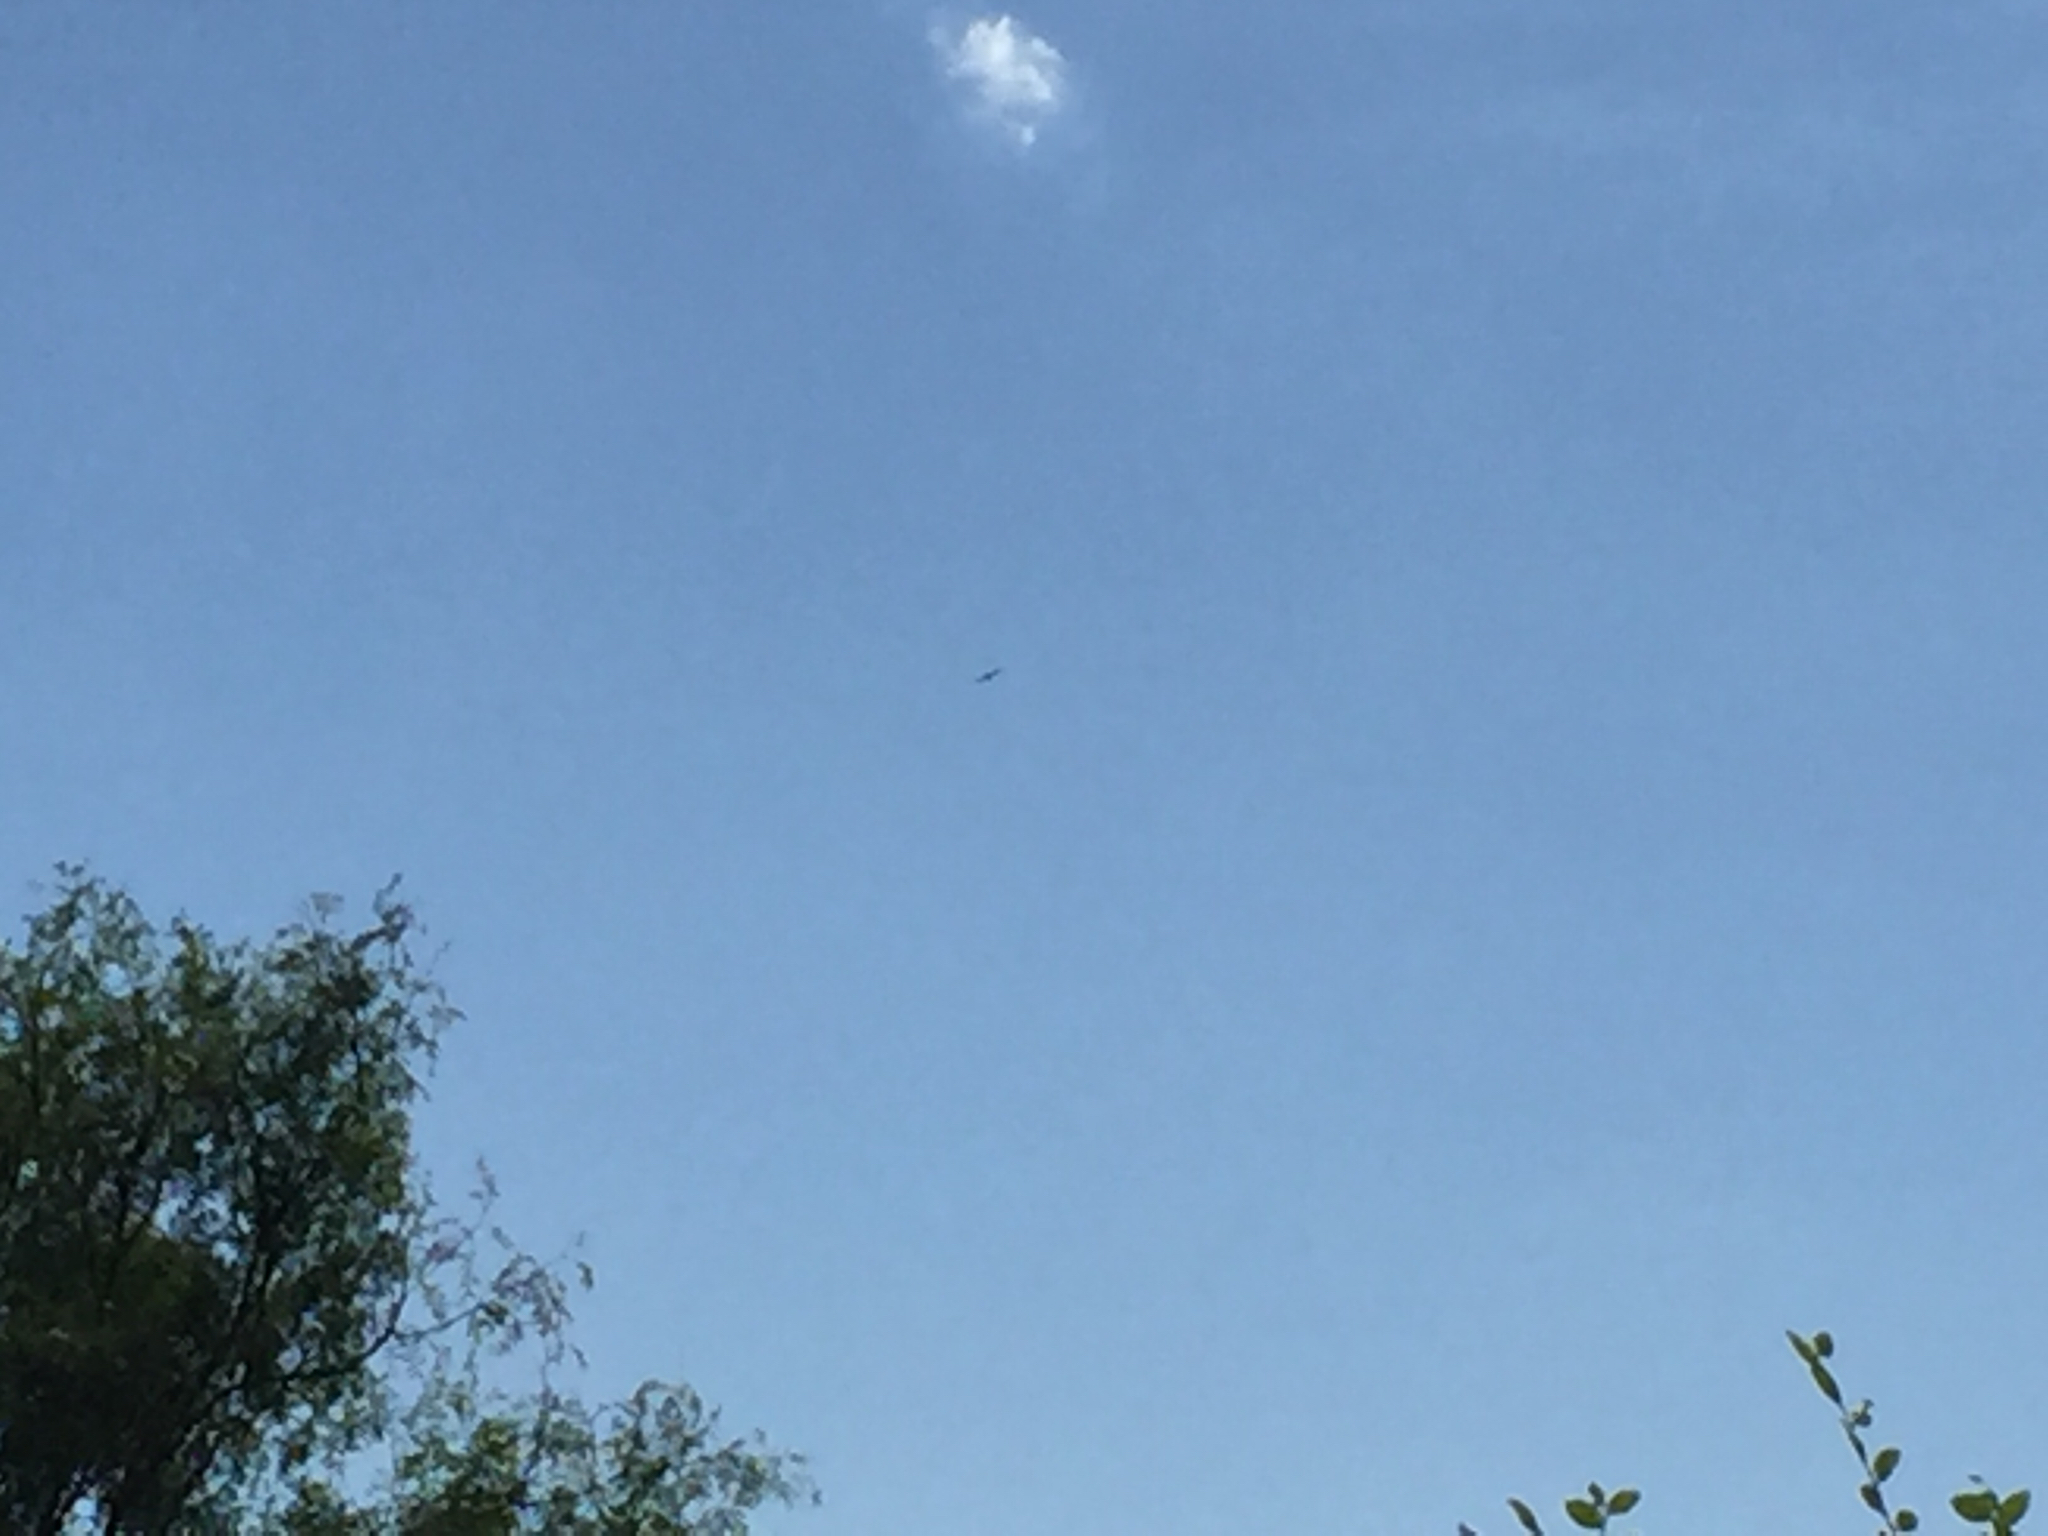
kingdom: Animalia
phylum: Chordata
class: Aves
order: Accipitriformes
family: Accipitridae
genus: Ictinia
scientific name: Ictinia mississippiensis
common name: Mississippi kite
